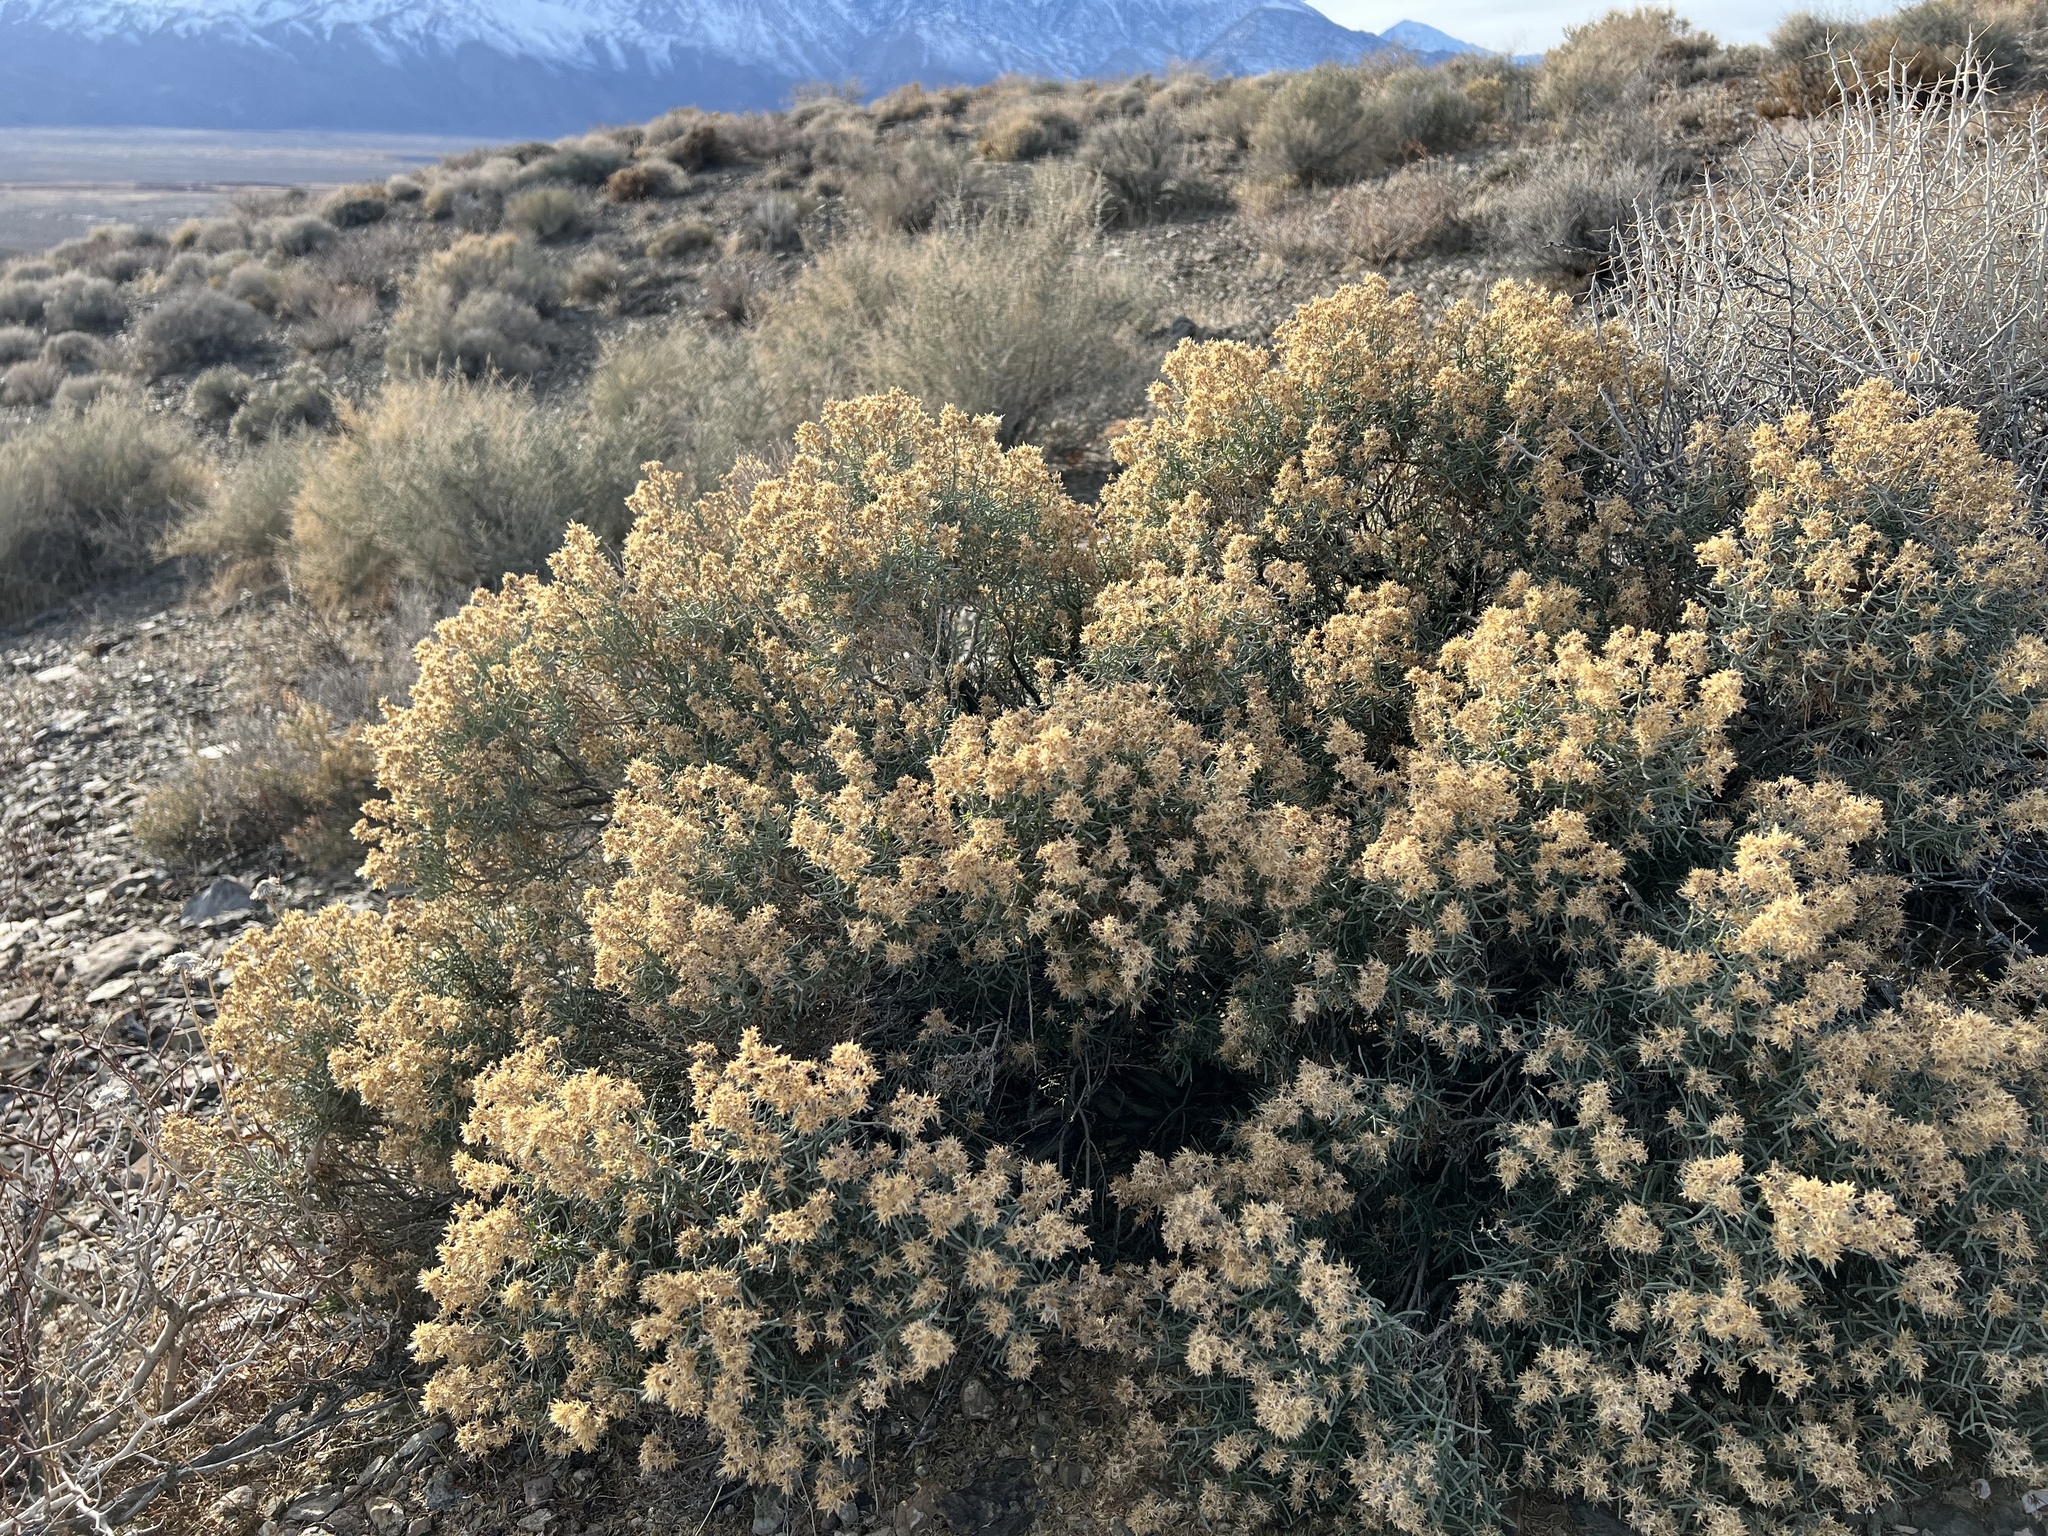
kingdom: Plantae
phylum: Tracheophyta
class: Magnoliopsida
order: Asterales
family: Asteraceae
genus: Ericameria
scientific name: Ericameria teretifolia
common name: Round-leaf rabbitbrush
